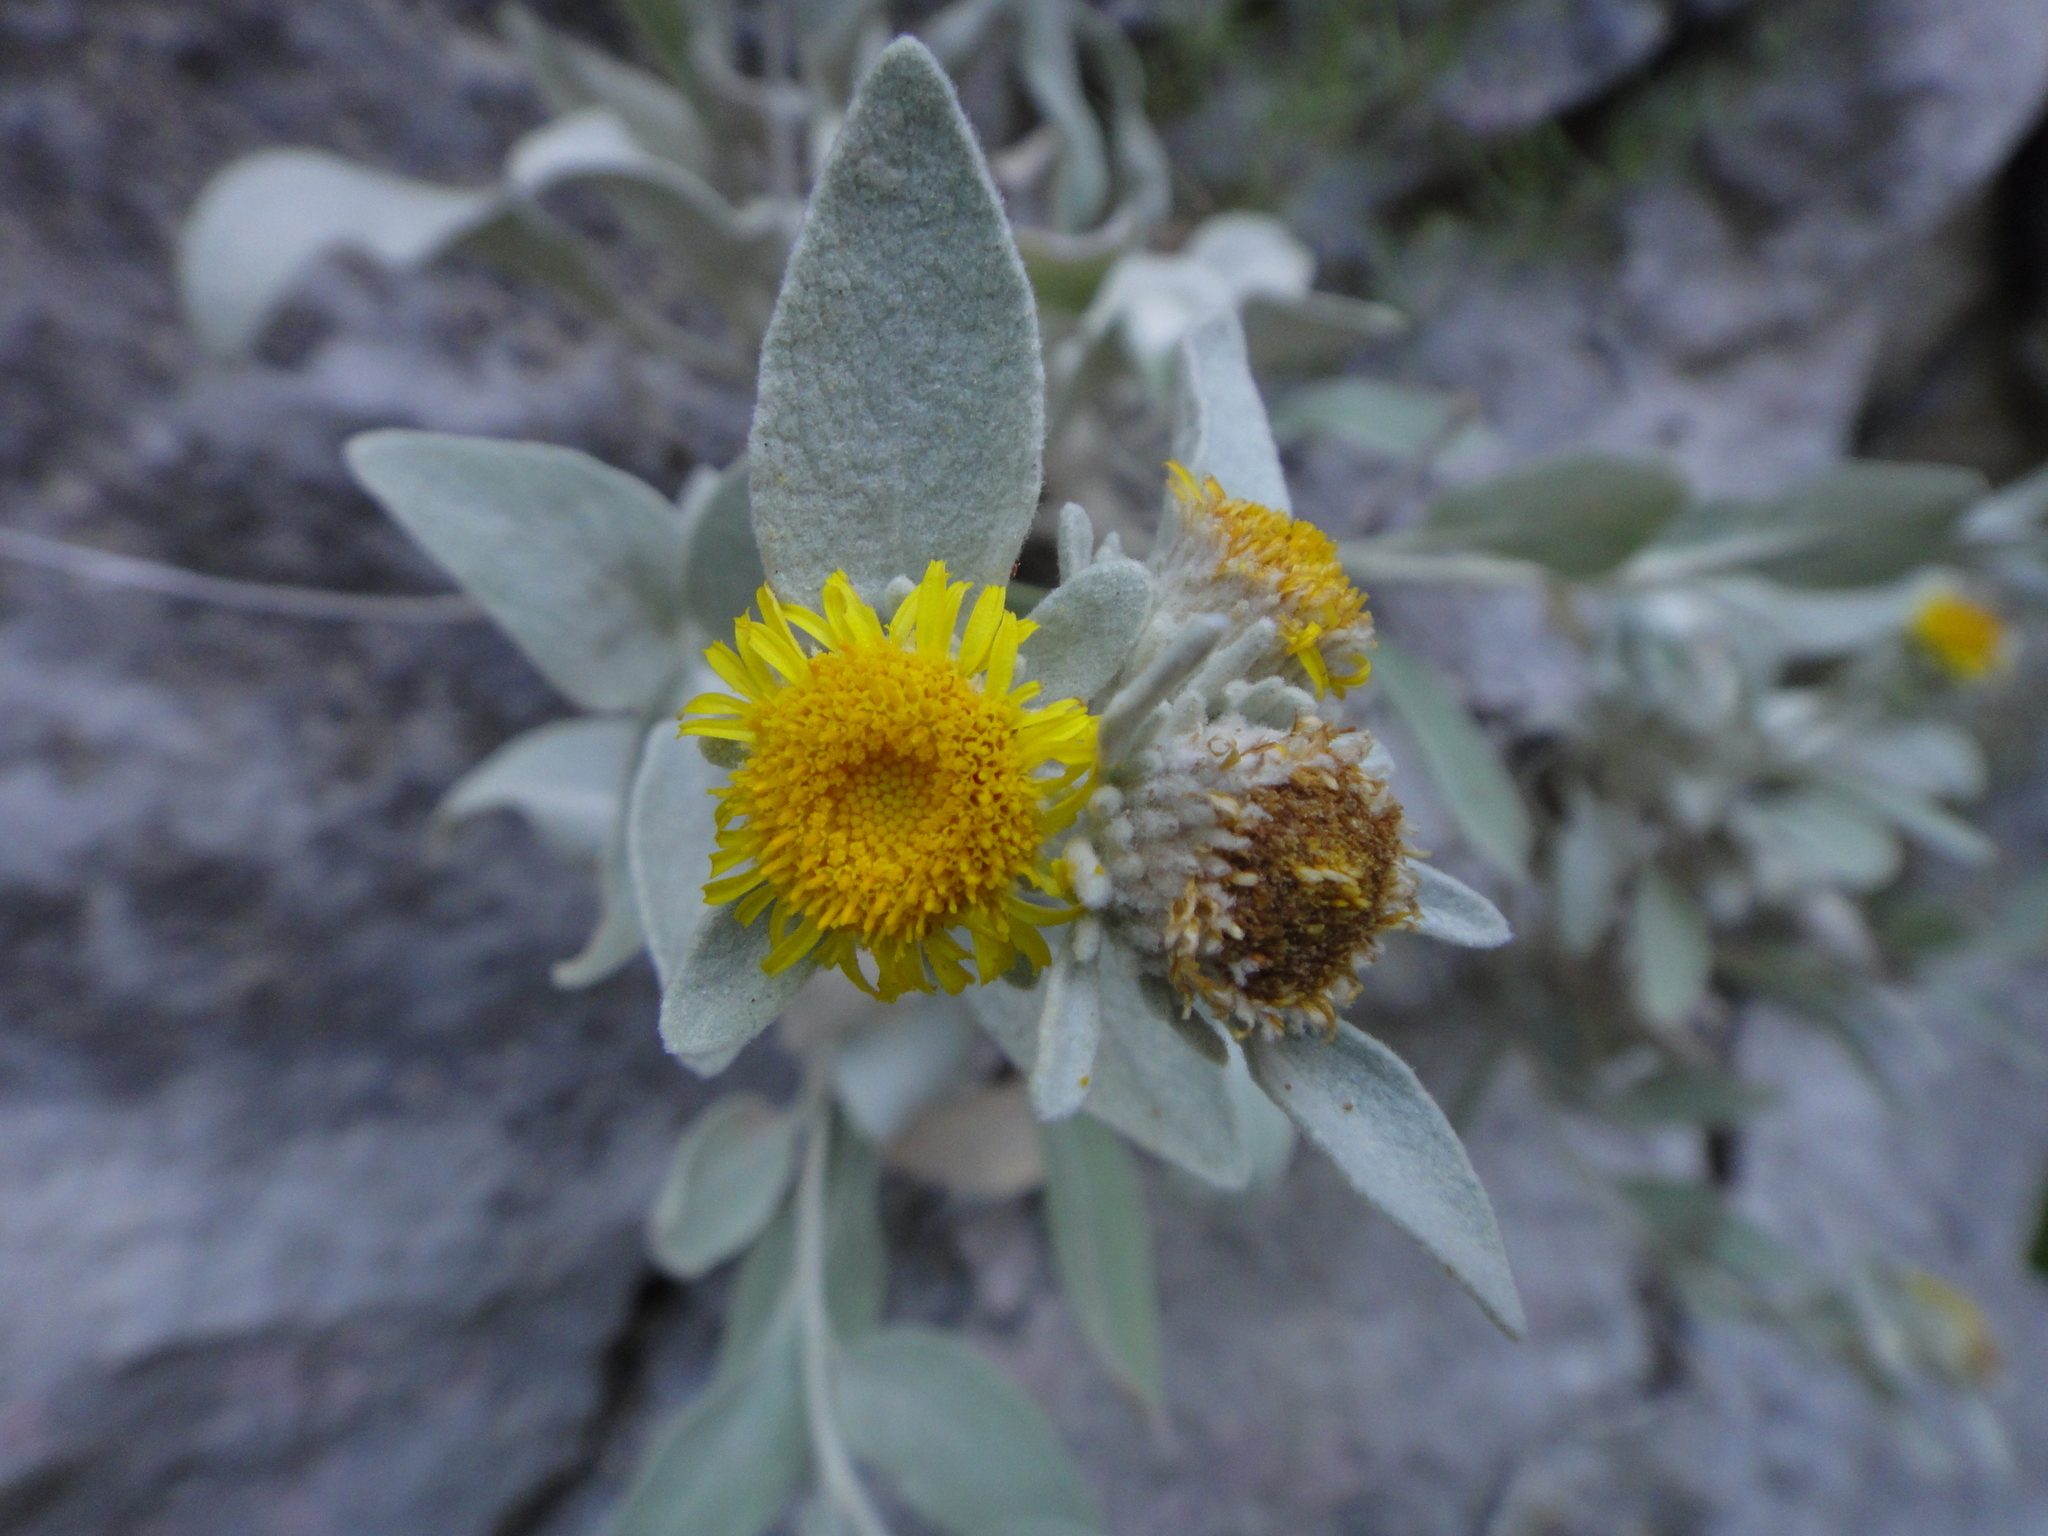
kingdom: Plantae
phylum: Tracheophyta
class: Magnoliopsida
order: Asterales
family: Asteraceae
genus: Pentanema
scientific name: Pentanema verbascifolium
